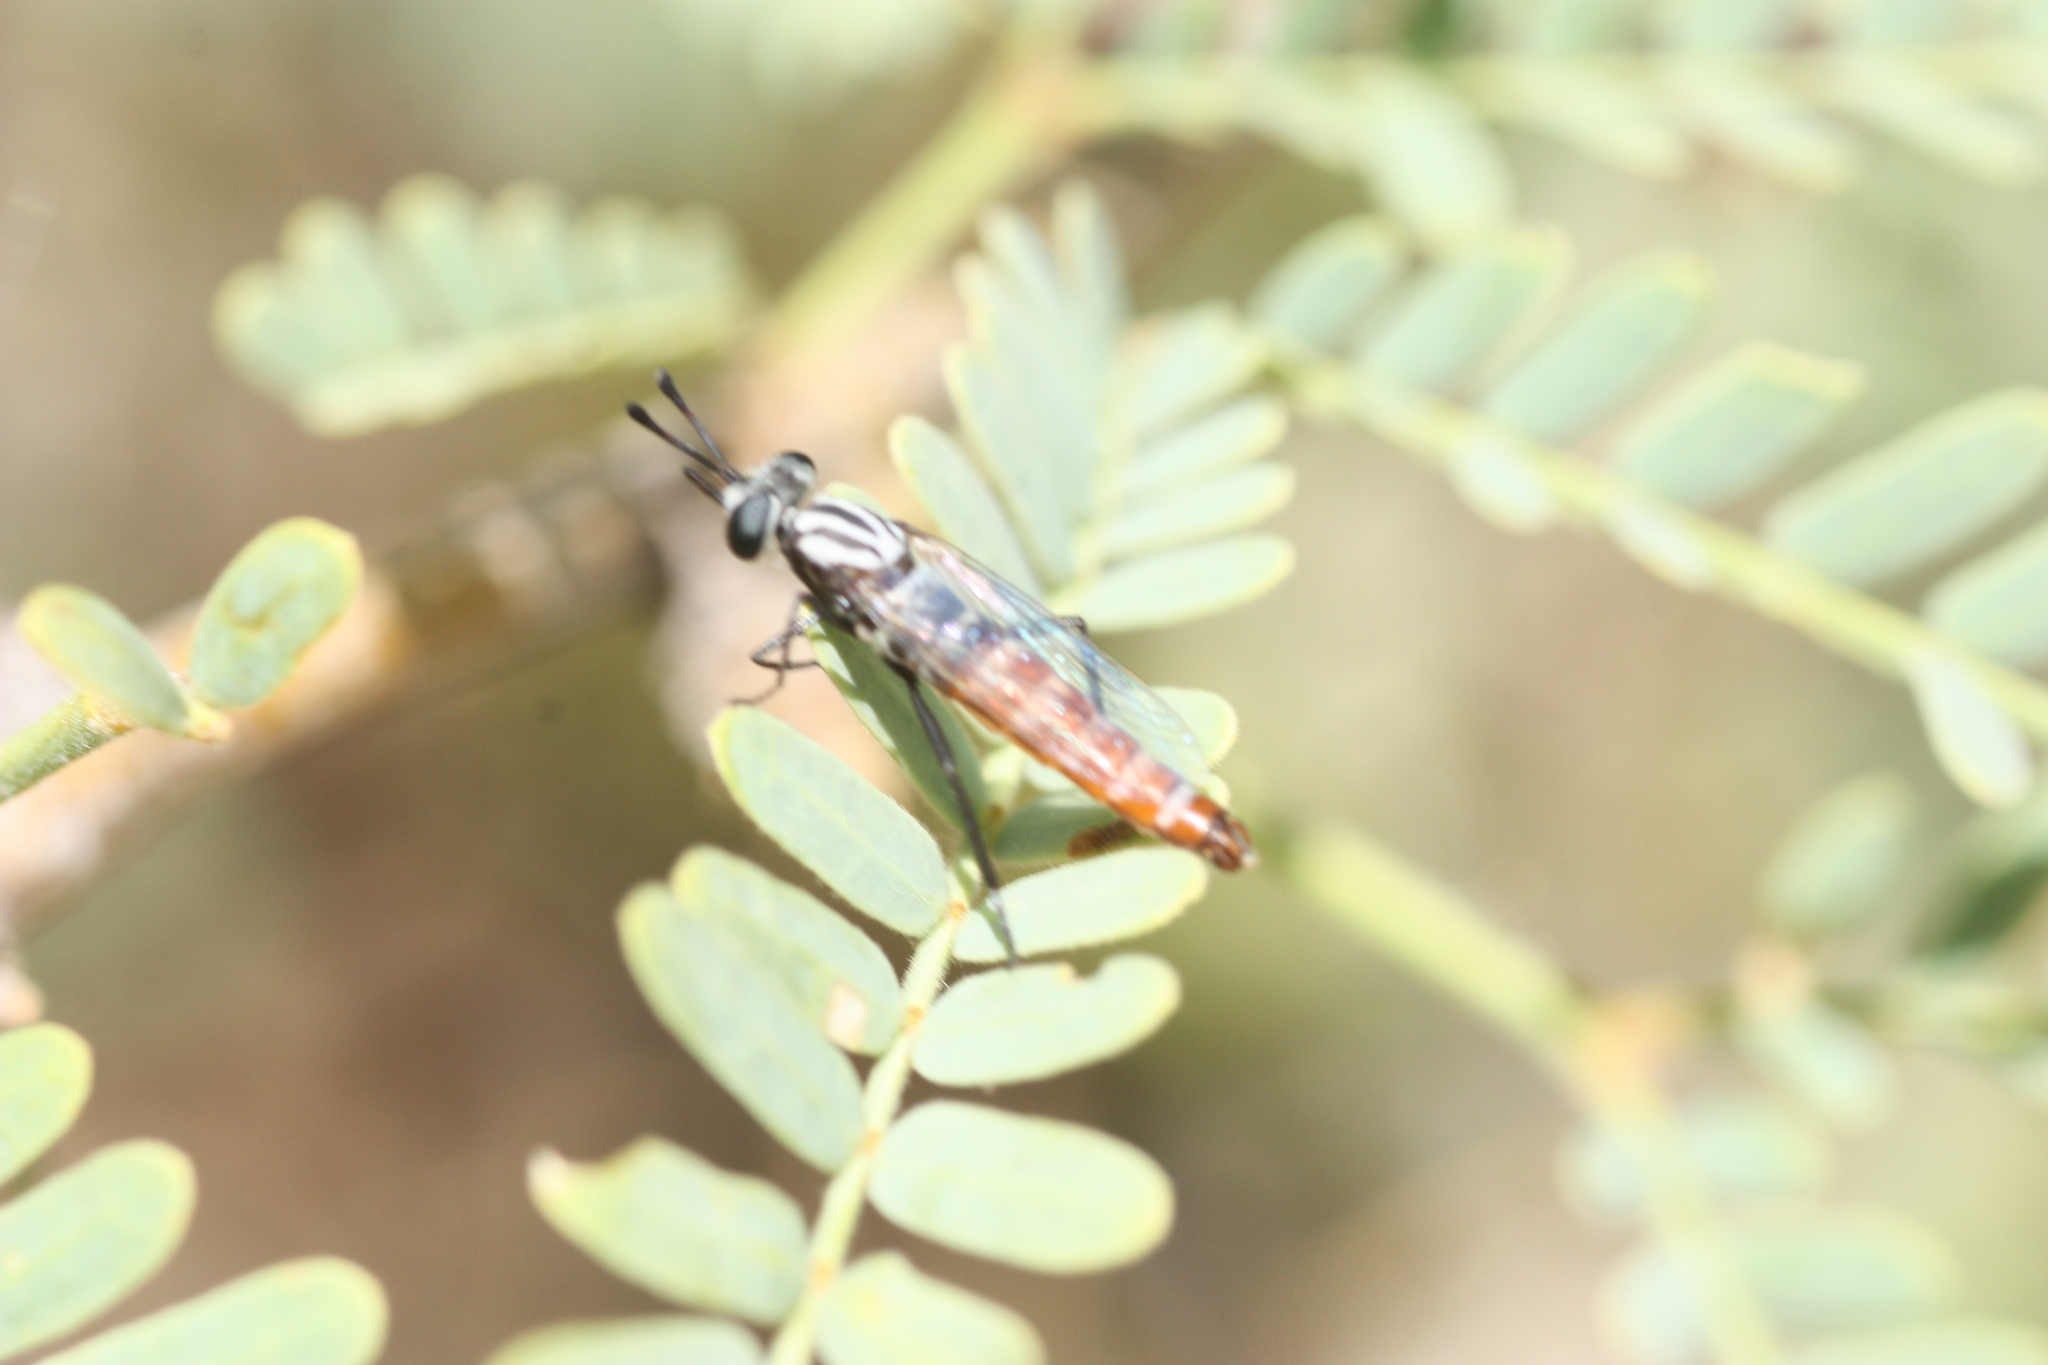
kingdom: Animalia
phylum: Arthropoda
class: Insecta
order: Diptera
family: Mydidae
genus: Pseudonomoneura
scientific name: Pseudonomoneura californica
